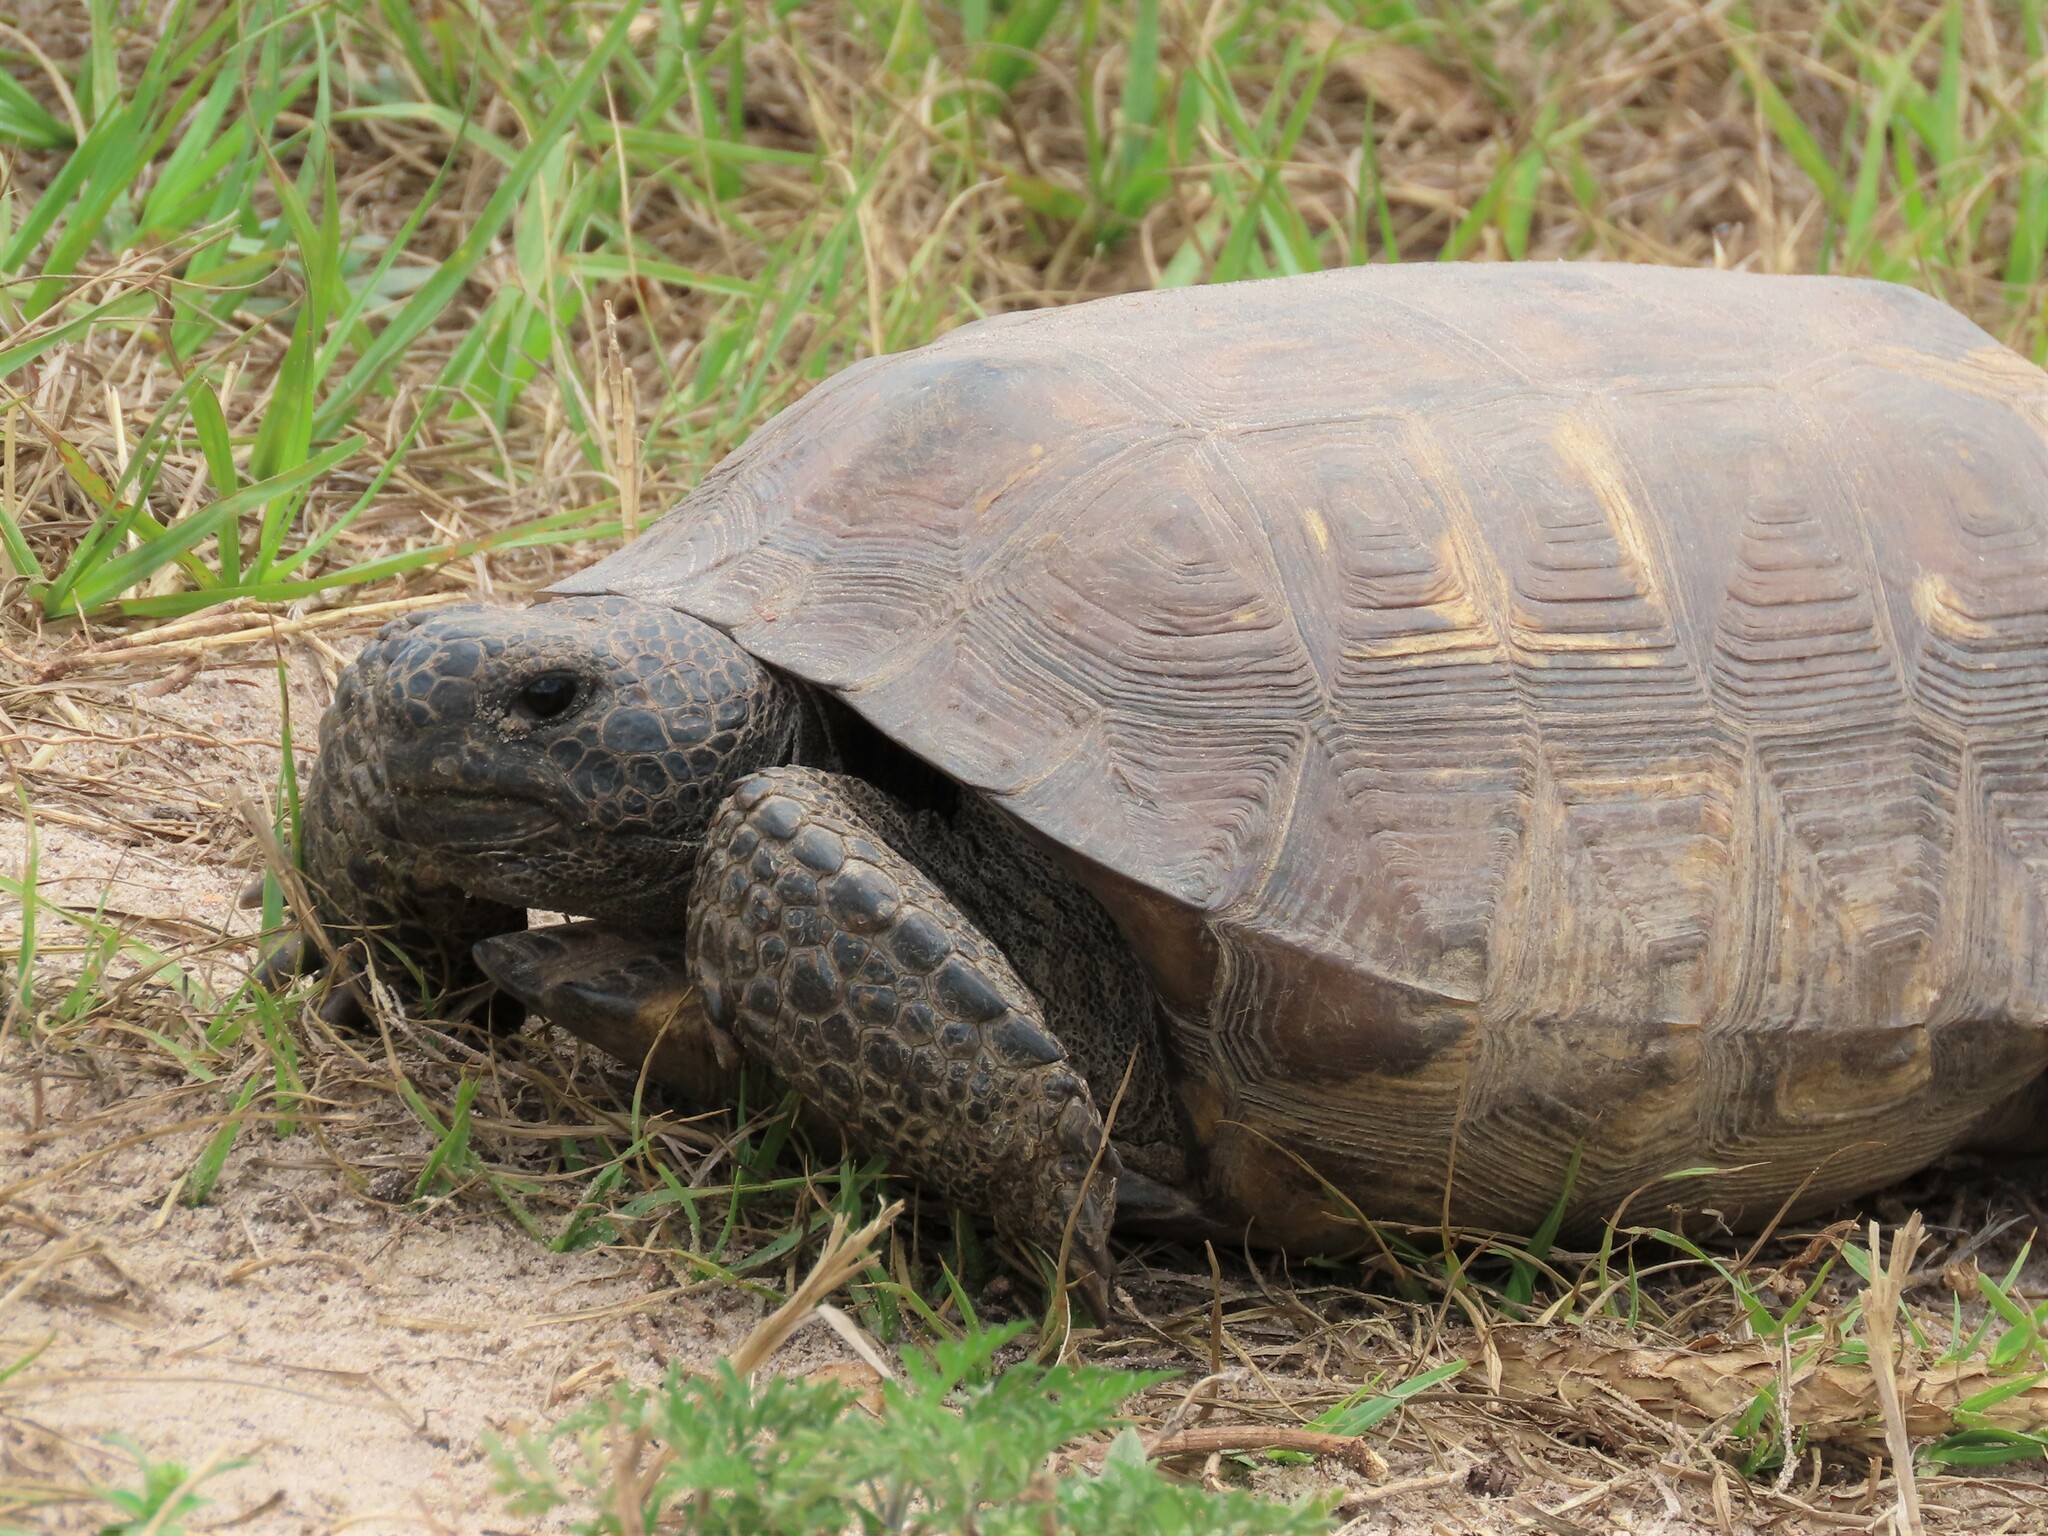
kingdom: Animalia
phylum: Chordata
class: Testudines
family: Testudinidae
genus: Gopherus
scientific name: Gopherus polyphemus
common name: Florida gopher tortoise
